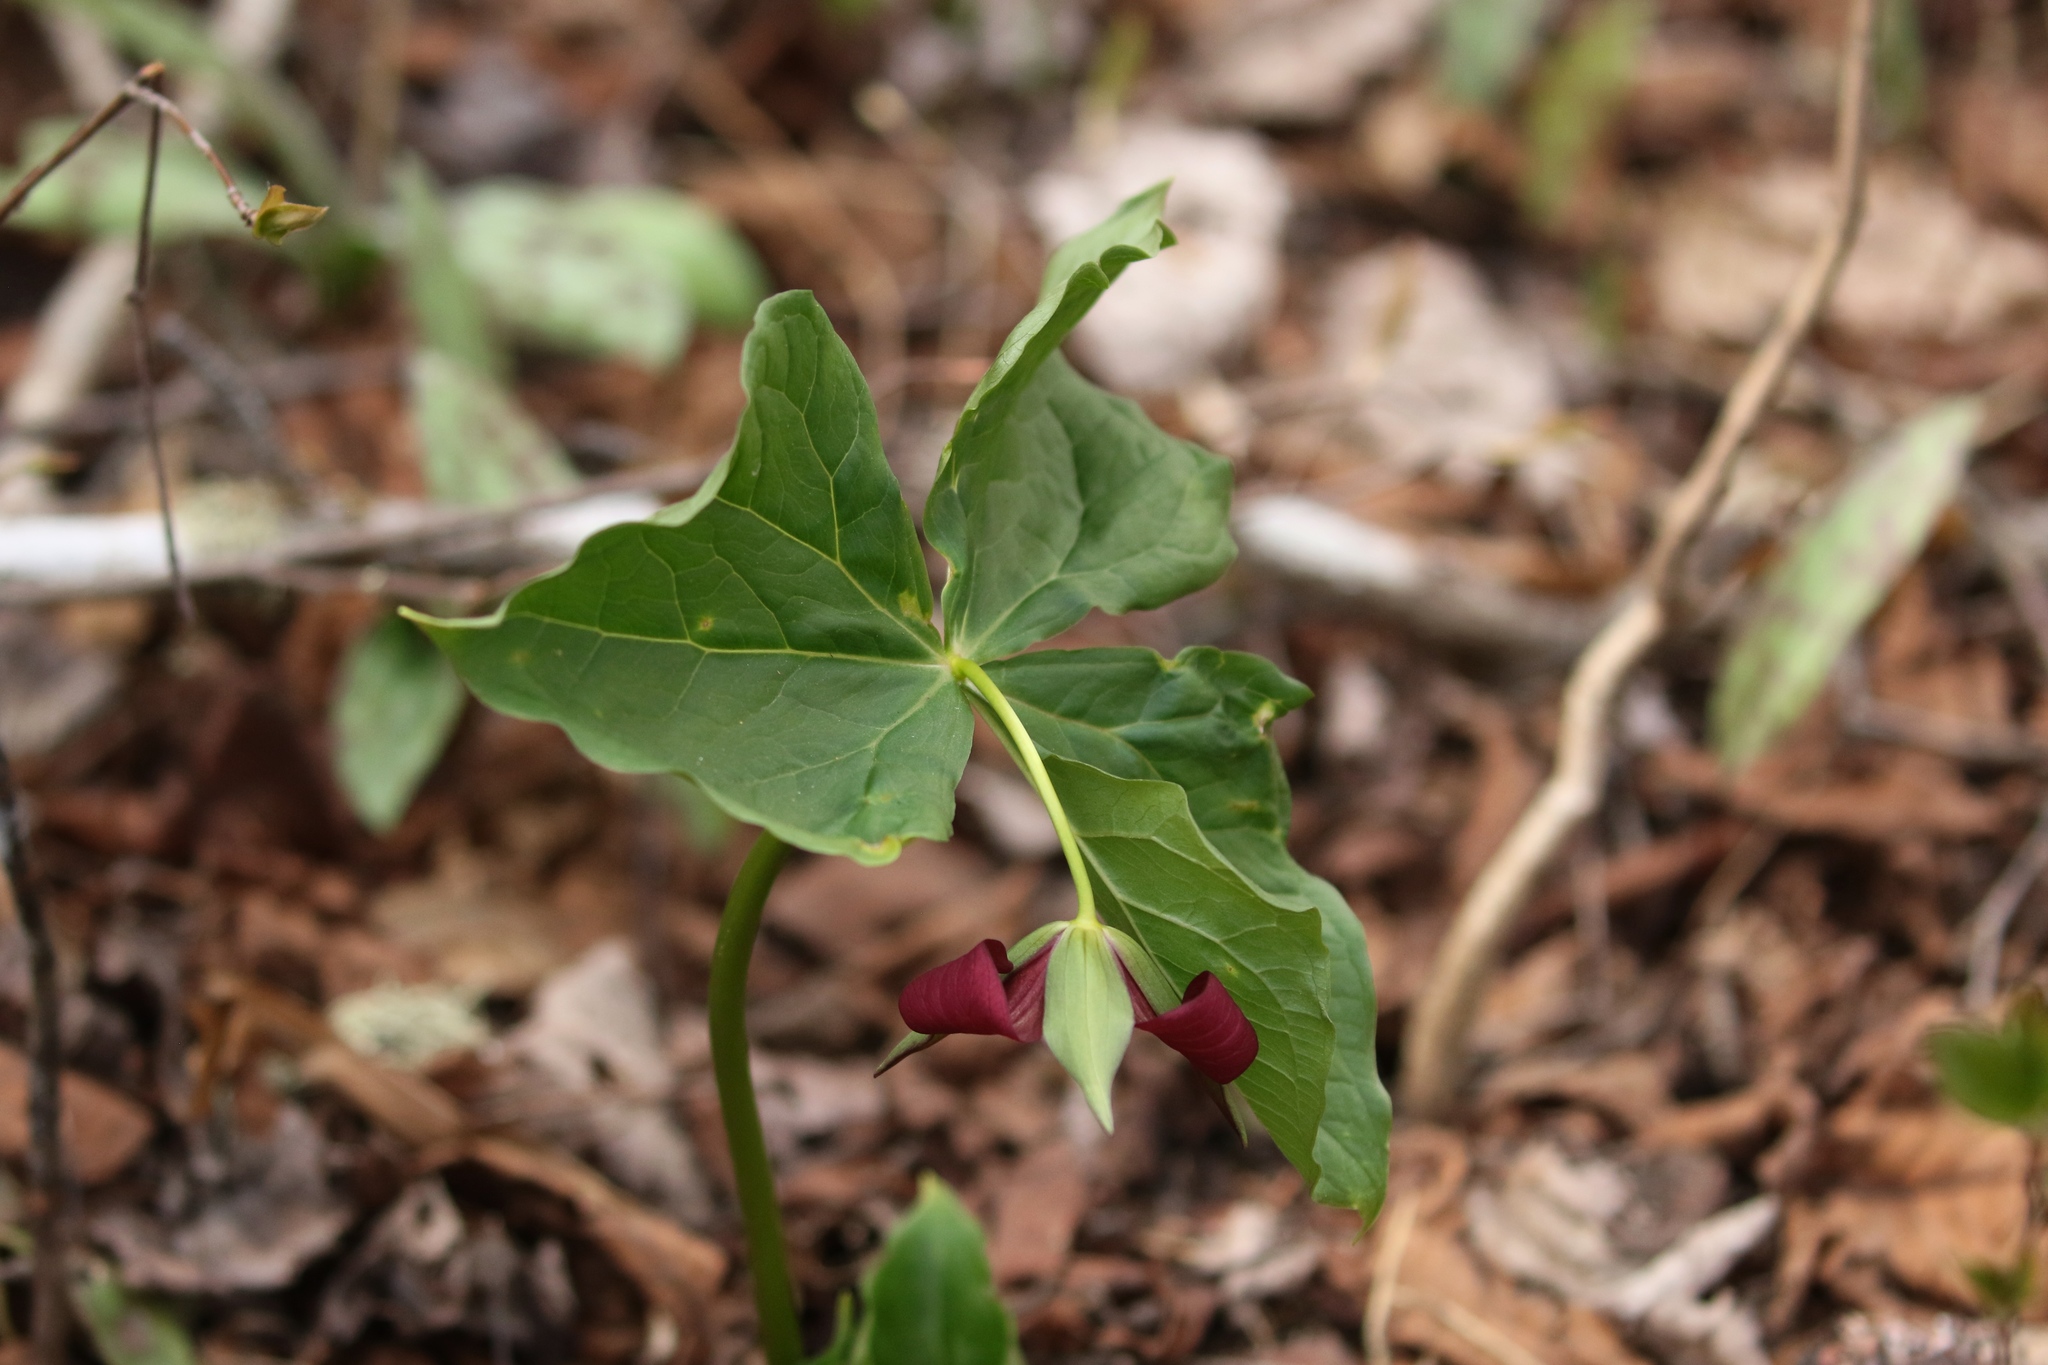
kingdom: Plantae
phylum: Tracheophyta
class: Liliopsida
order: Liliales
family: Melanthiaceae
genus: Trillium
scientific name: Trillium erectum
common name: Purple trillium
